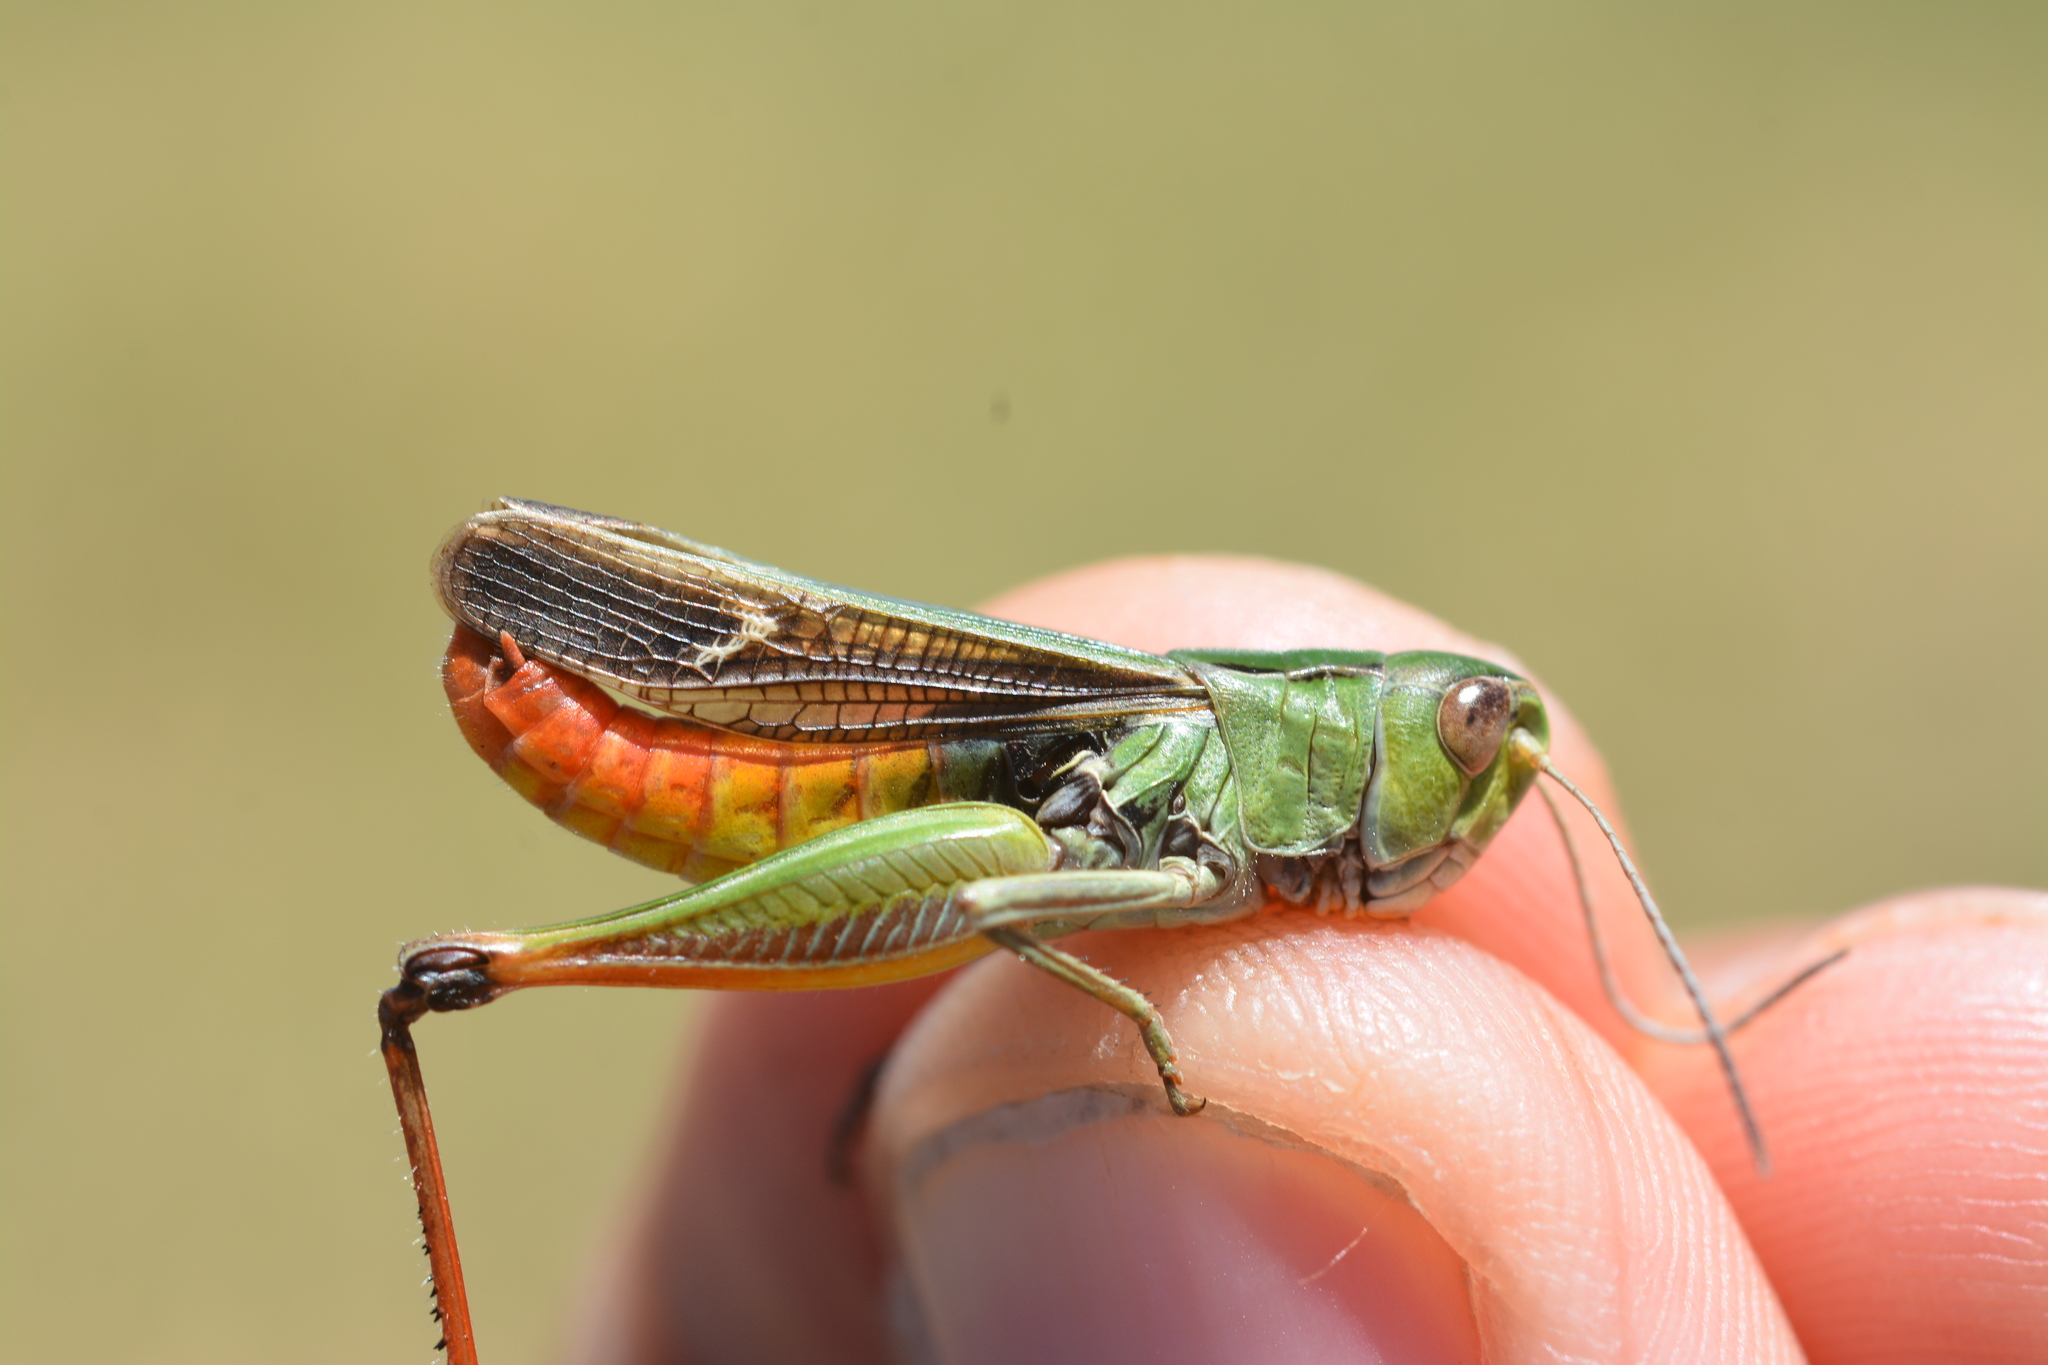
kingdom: Animalia
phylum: Arthropoda
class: Insecta
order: Orthoptera
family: Acrididae
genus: Stenobothrus
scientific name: Stenobothrus lineatus
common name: Stripe-winged grasshopper
